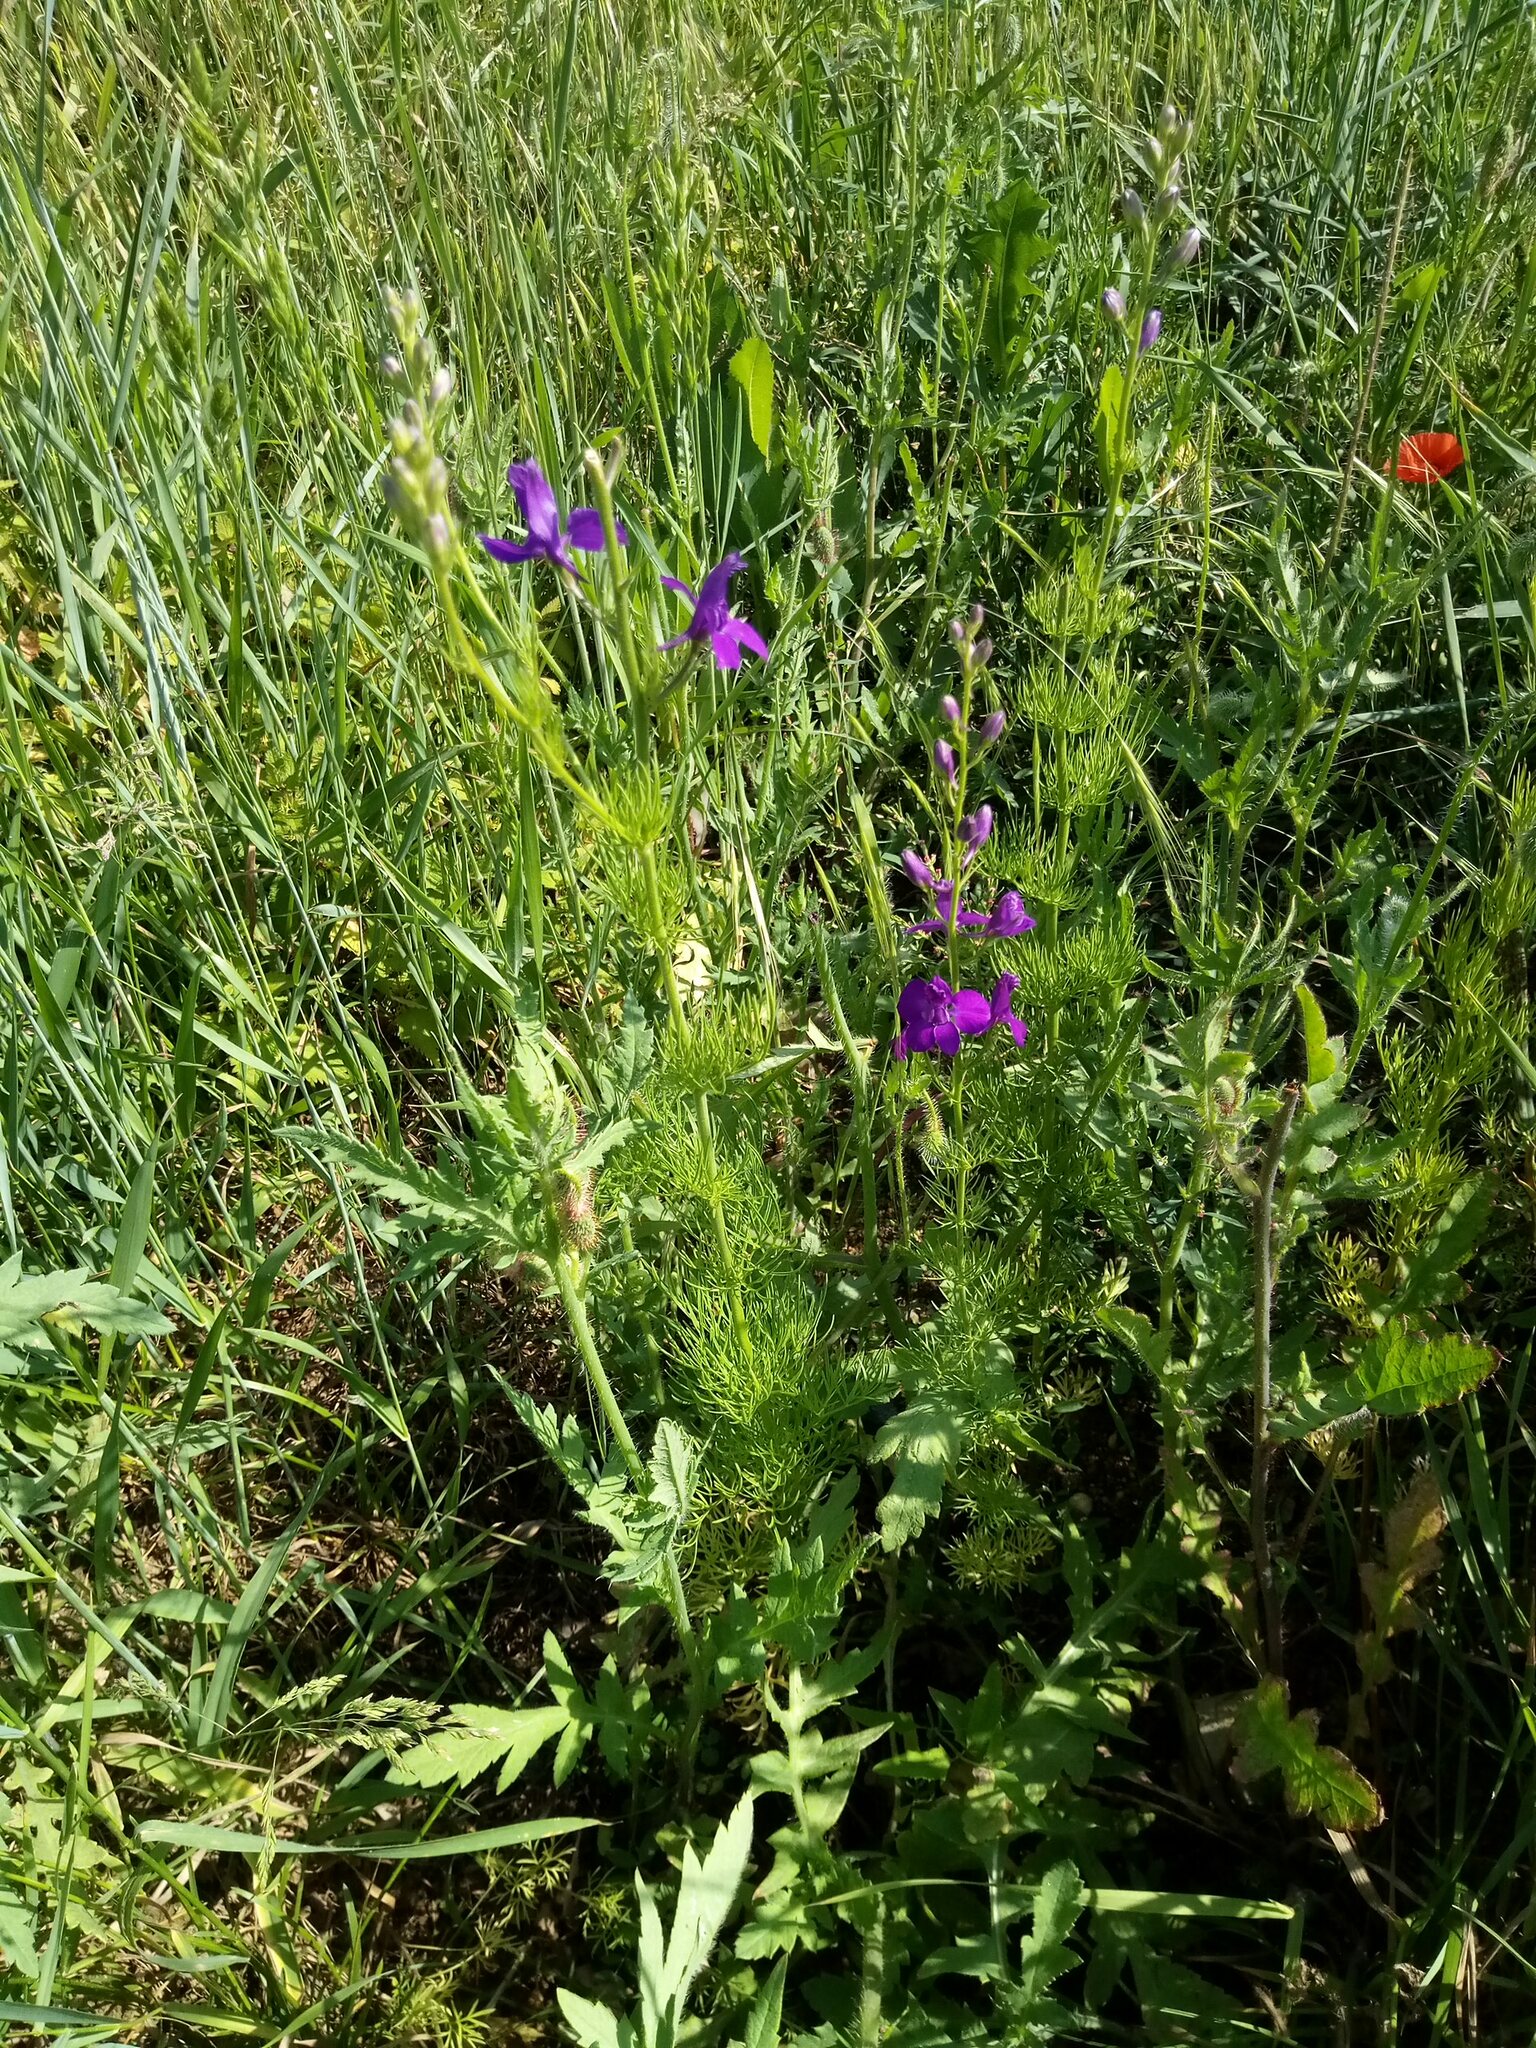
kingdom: Plantae
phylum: Tracheophyta
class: Magnoliopsida
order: Ranunculales
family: Ranunculaceae
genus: Delphinium
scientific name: Delphinium ajacis
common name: Doubtful knight's-spur
